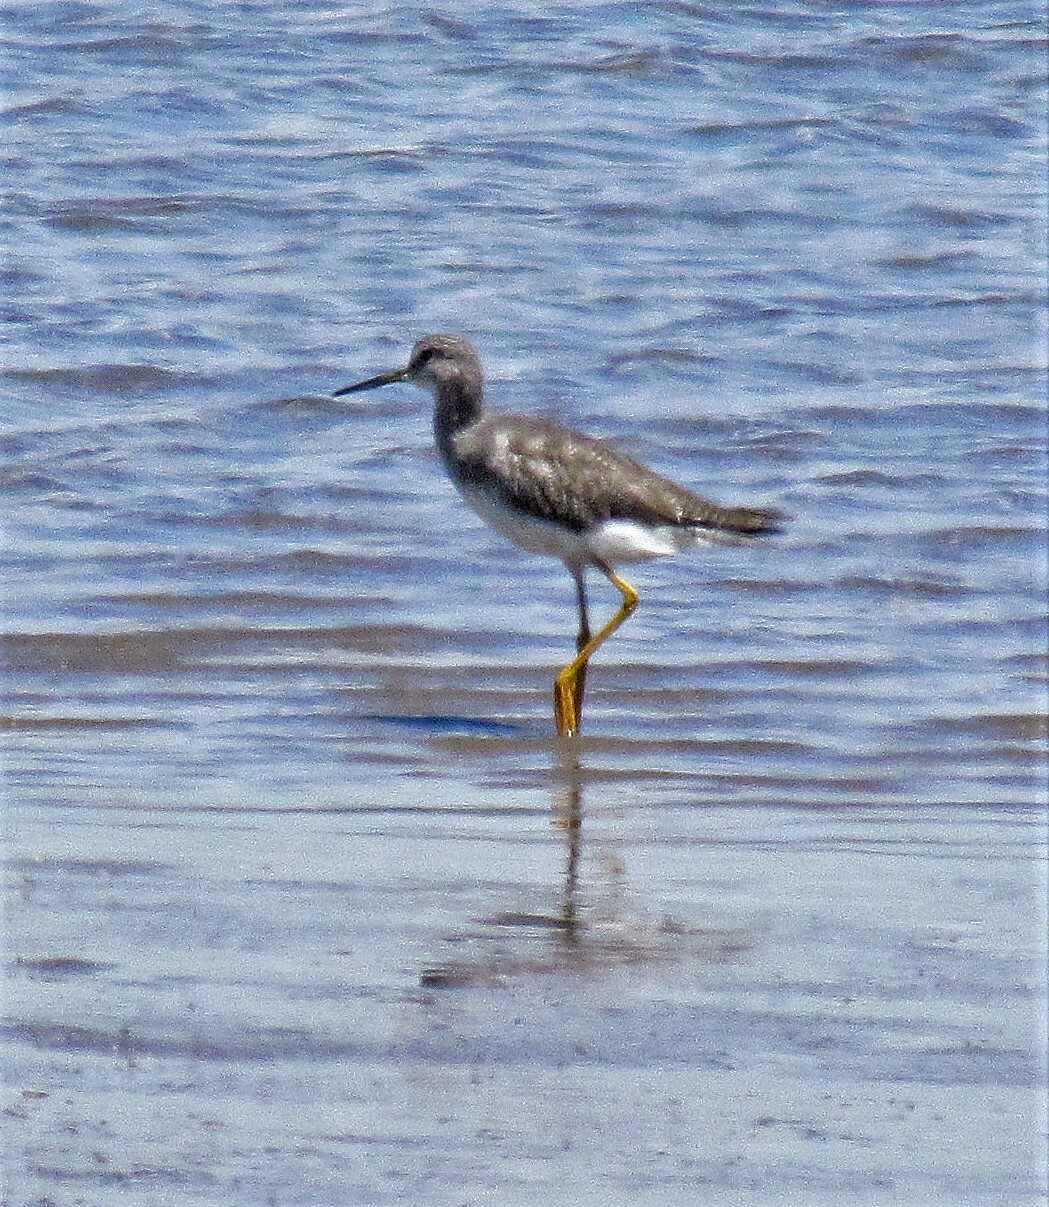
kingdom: Animalia
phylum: Chordata
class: Aves
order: Charadriiformes
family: Scolopacidae
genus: Tringa
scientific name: Tringa flavipes
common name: Lesser yellowlegs
